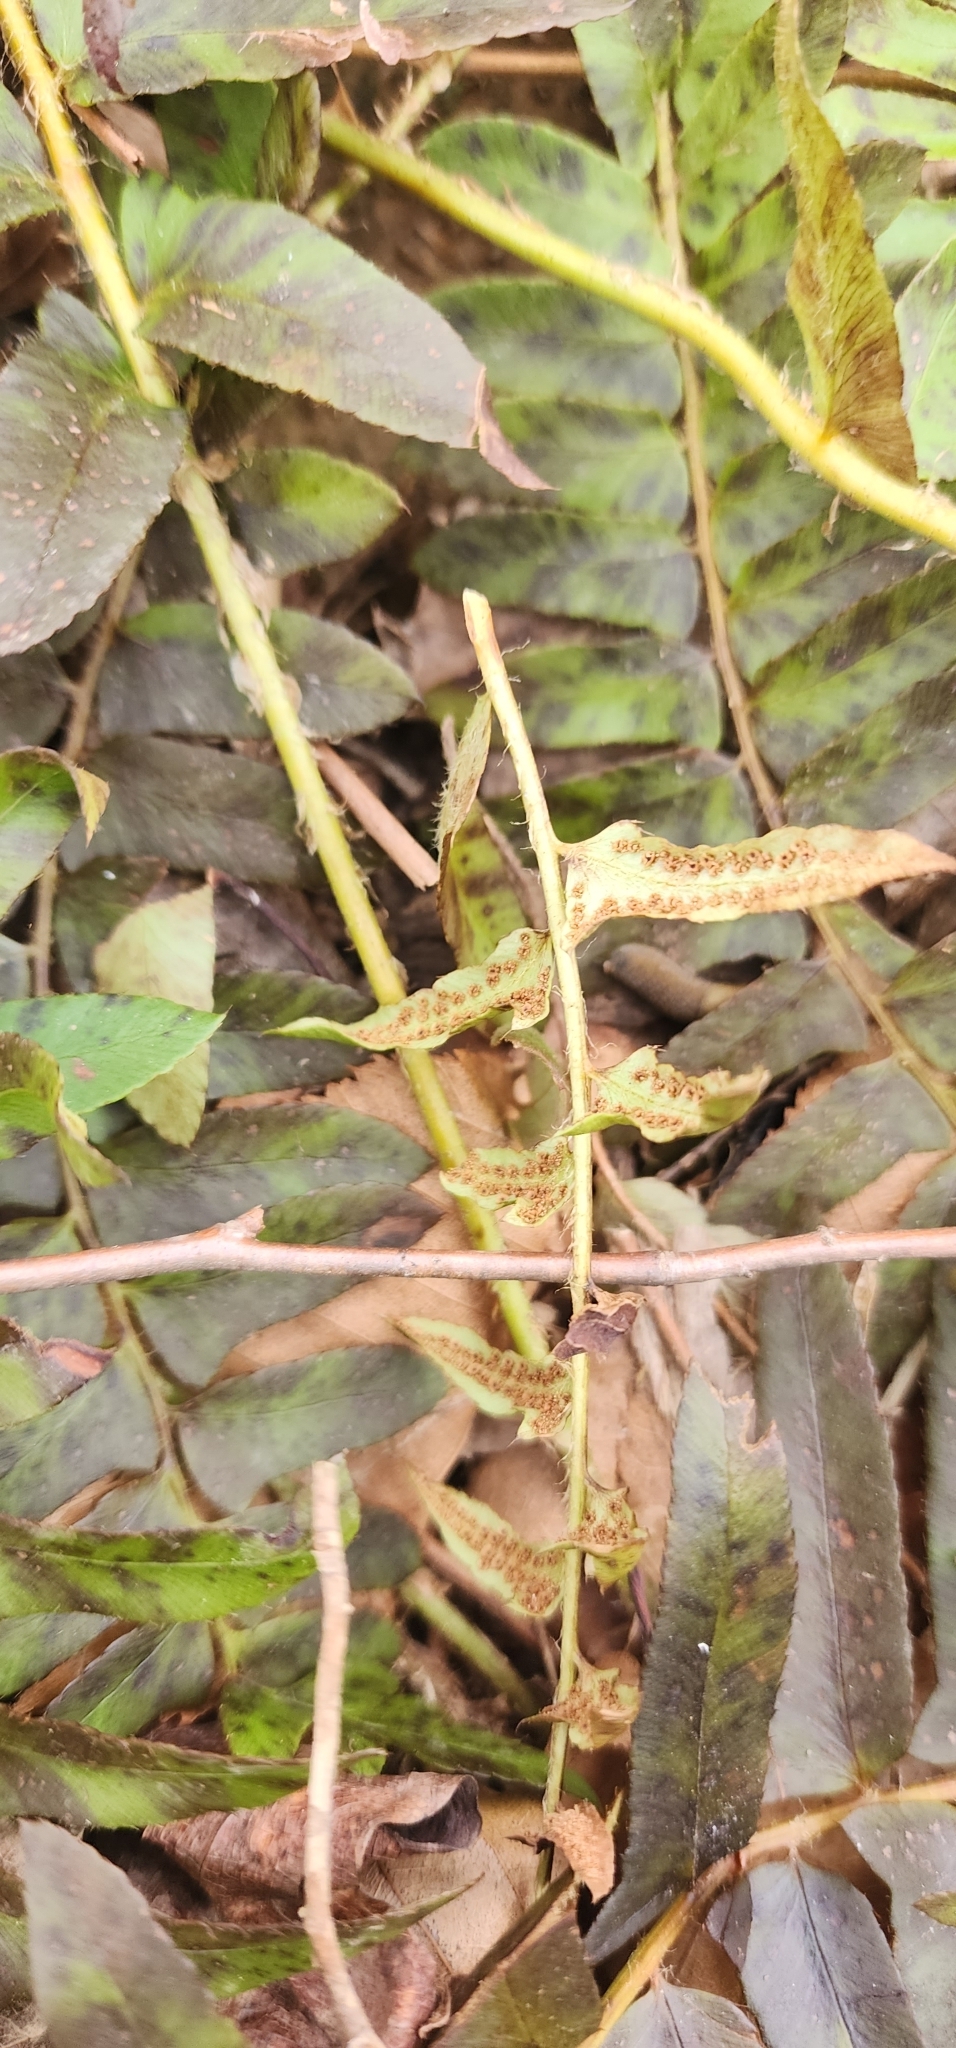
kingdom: Plantae
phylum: Tracheophyta
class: Polypodiopsida
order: Polypodiales
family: Dryopteridaceae
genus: Polystichum
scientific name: Polystichum acrostichoides
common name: Christmas fern
